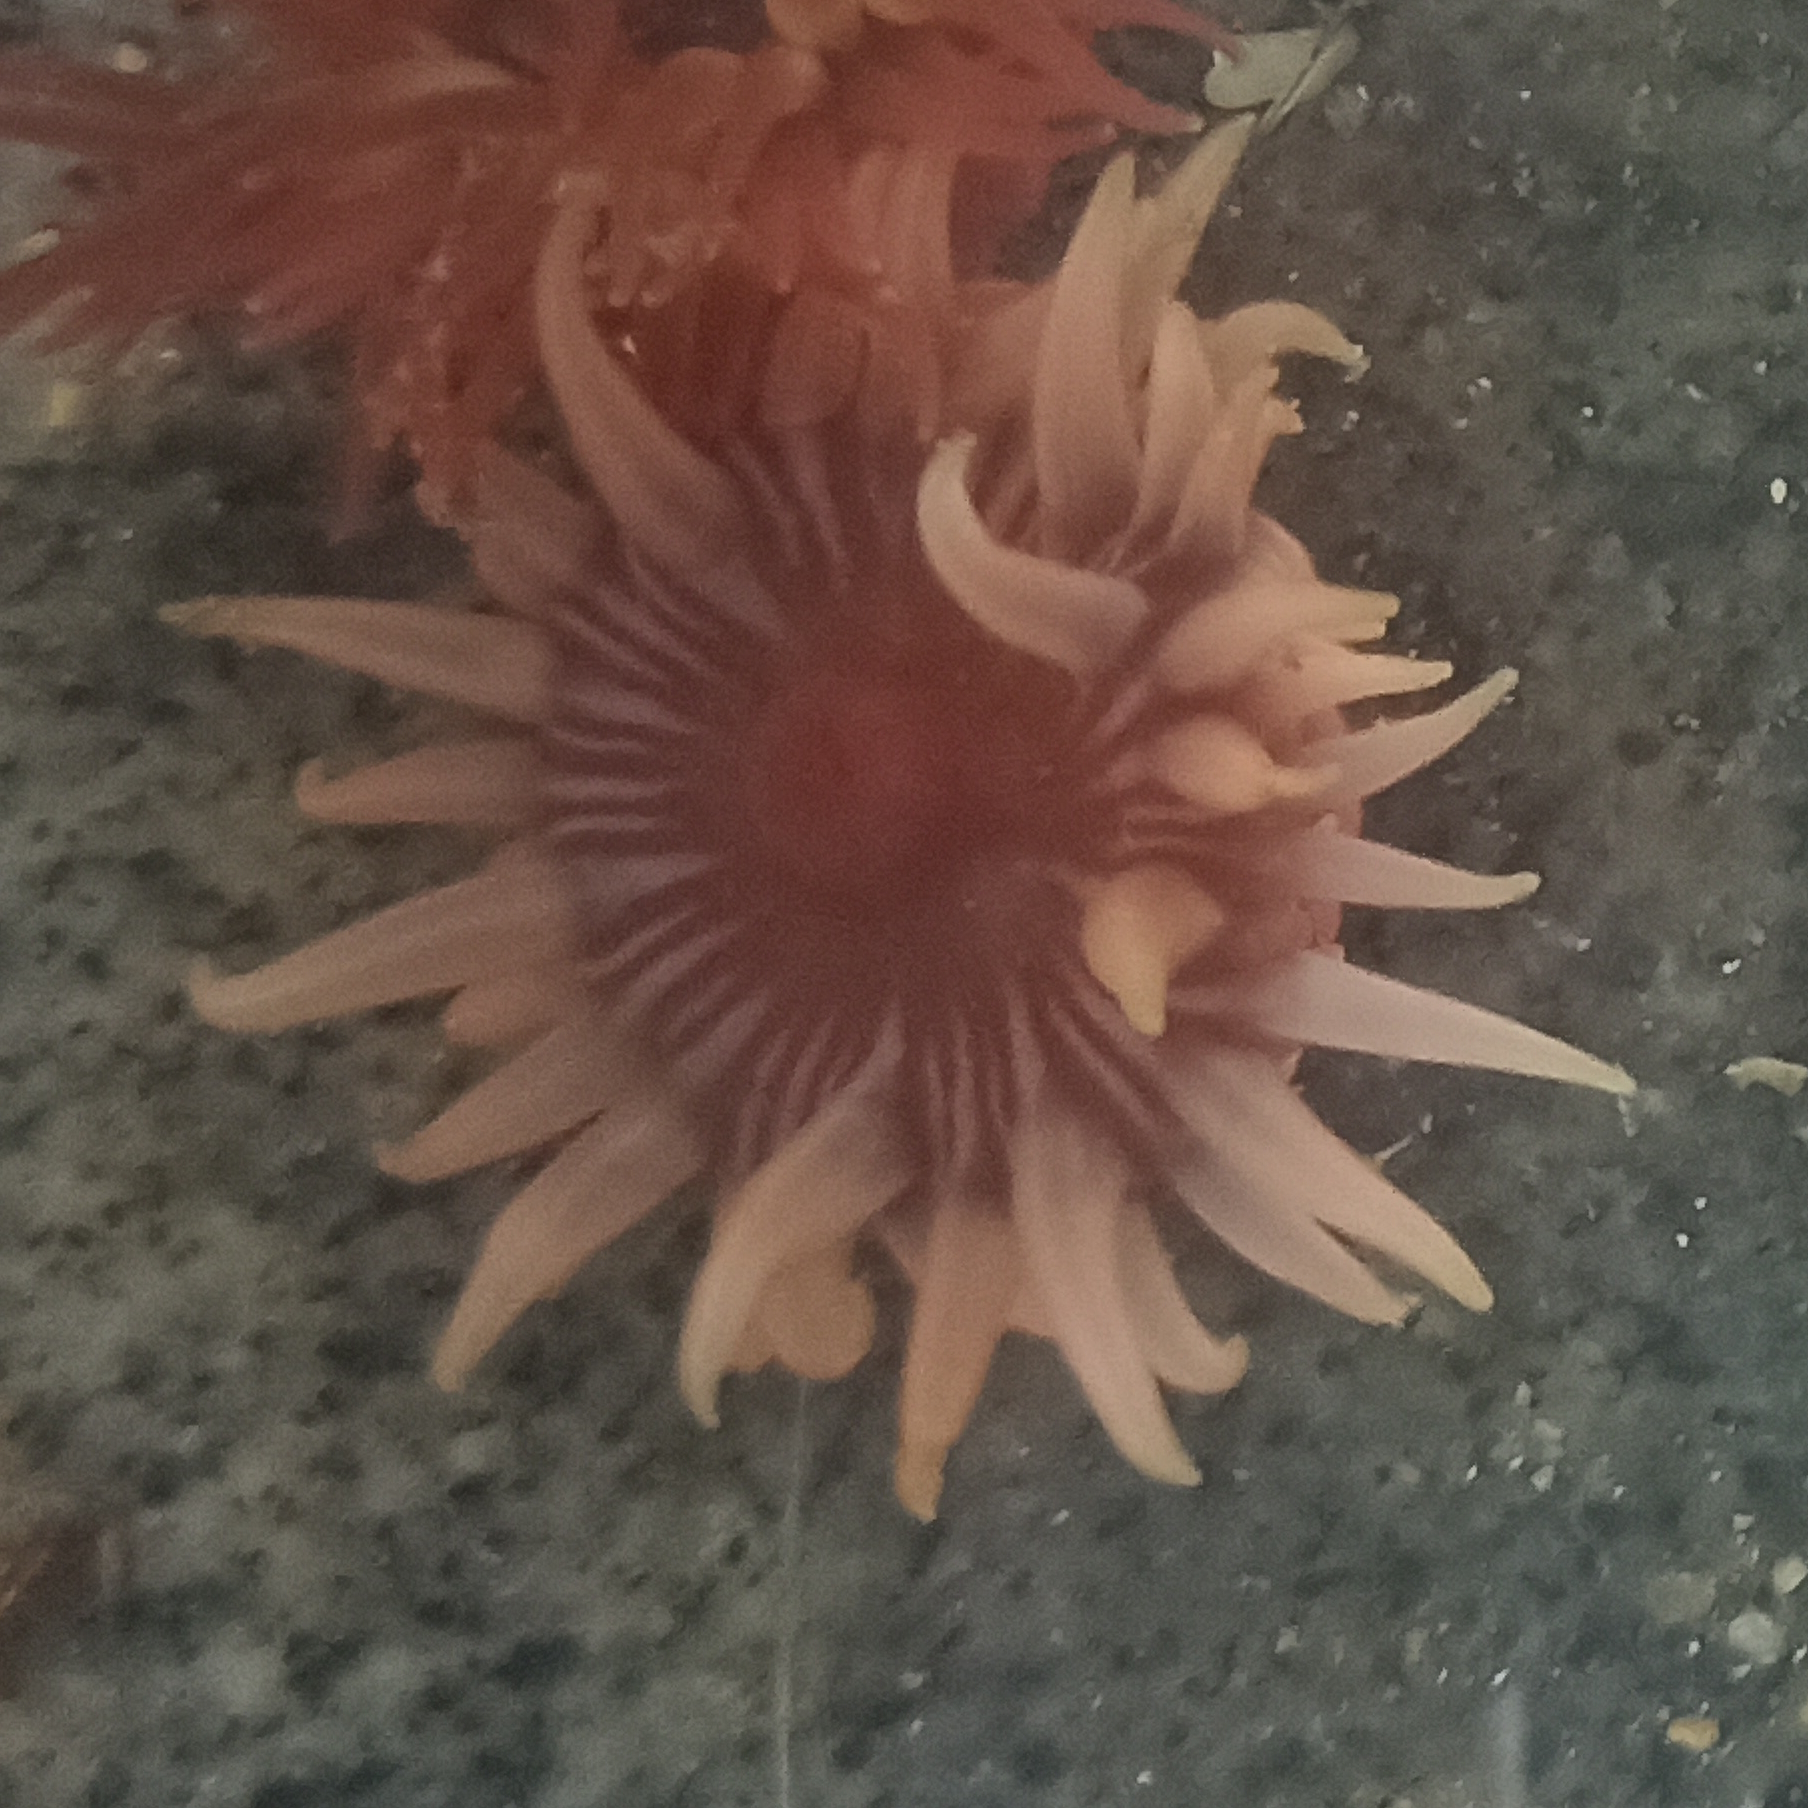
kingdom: Animalia
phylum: Cnidaria
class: Anthozoa
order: Actiniaria
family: Actiniidae
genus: Anemonia
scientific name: Anemonia sargassensis
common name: Sargassum anemone
